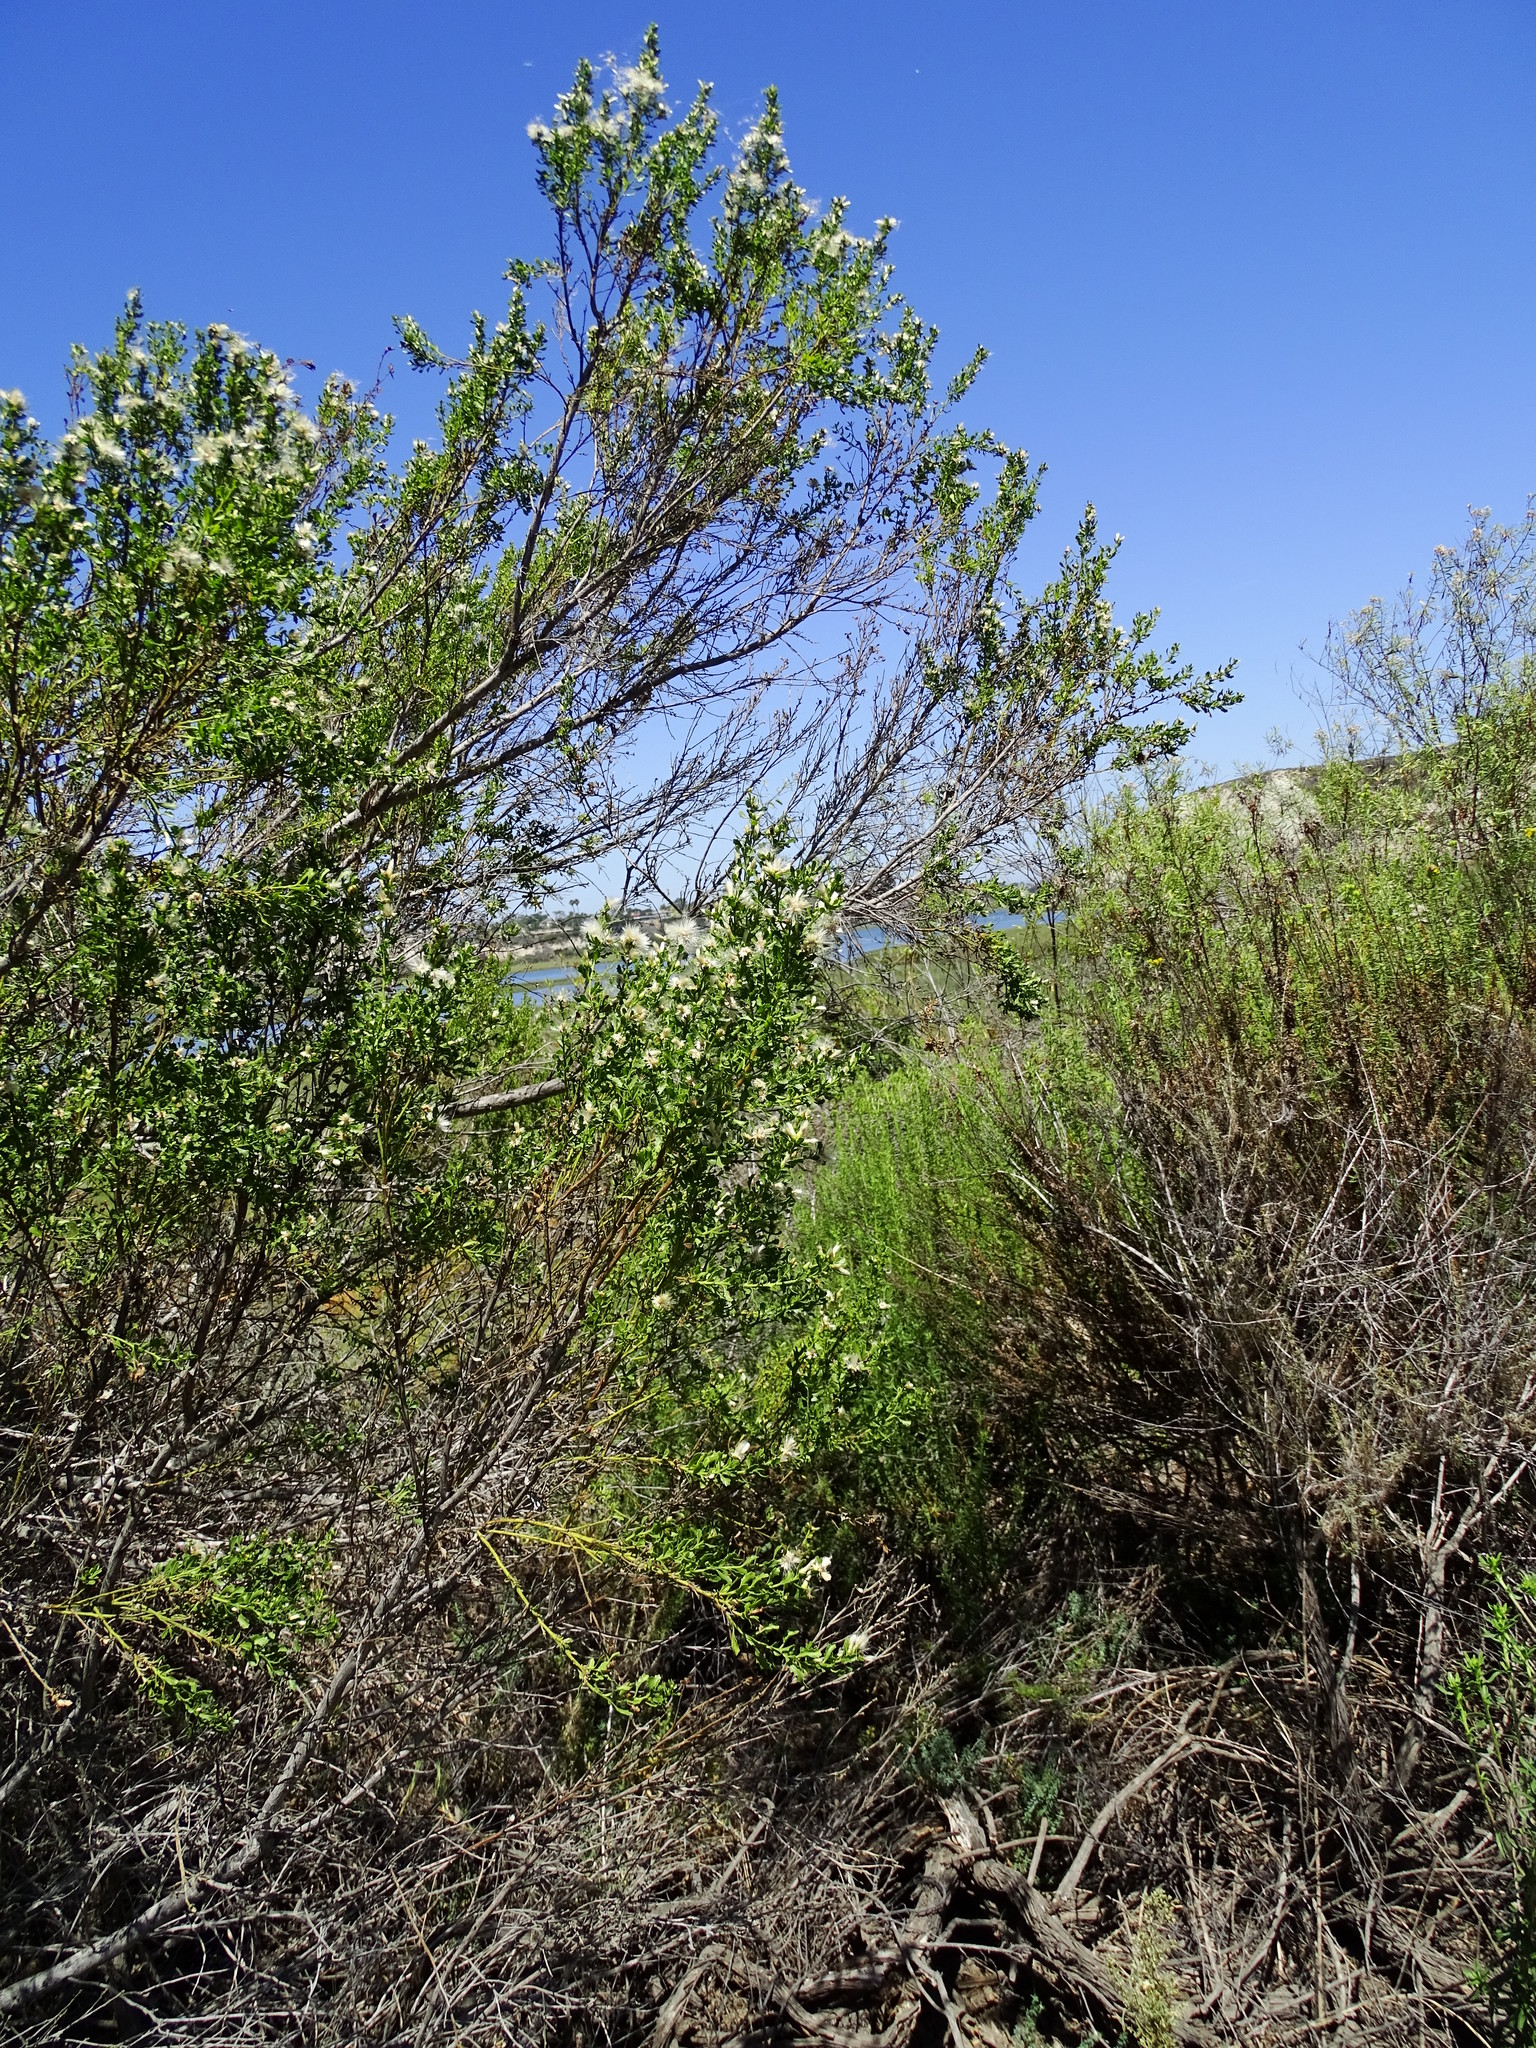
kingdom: Plantae
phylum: Tracheophyta
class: Magnoliopsida
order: Asterales
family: Asteraceae
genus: Baccharis
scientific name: Baccharis pilularis
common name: Coyotebrush
